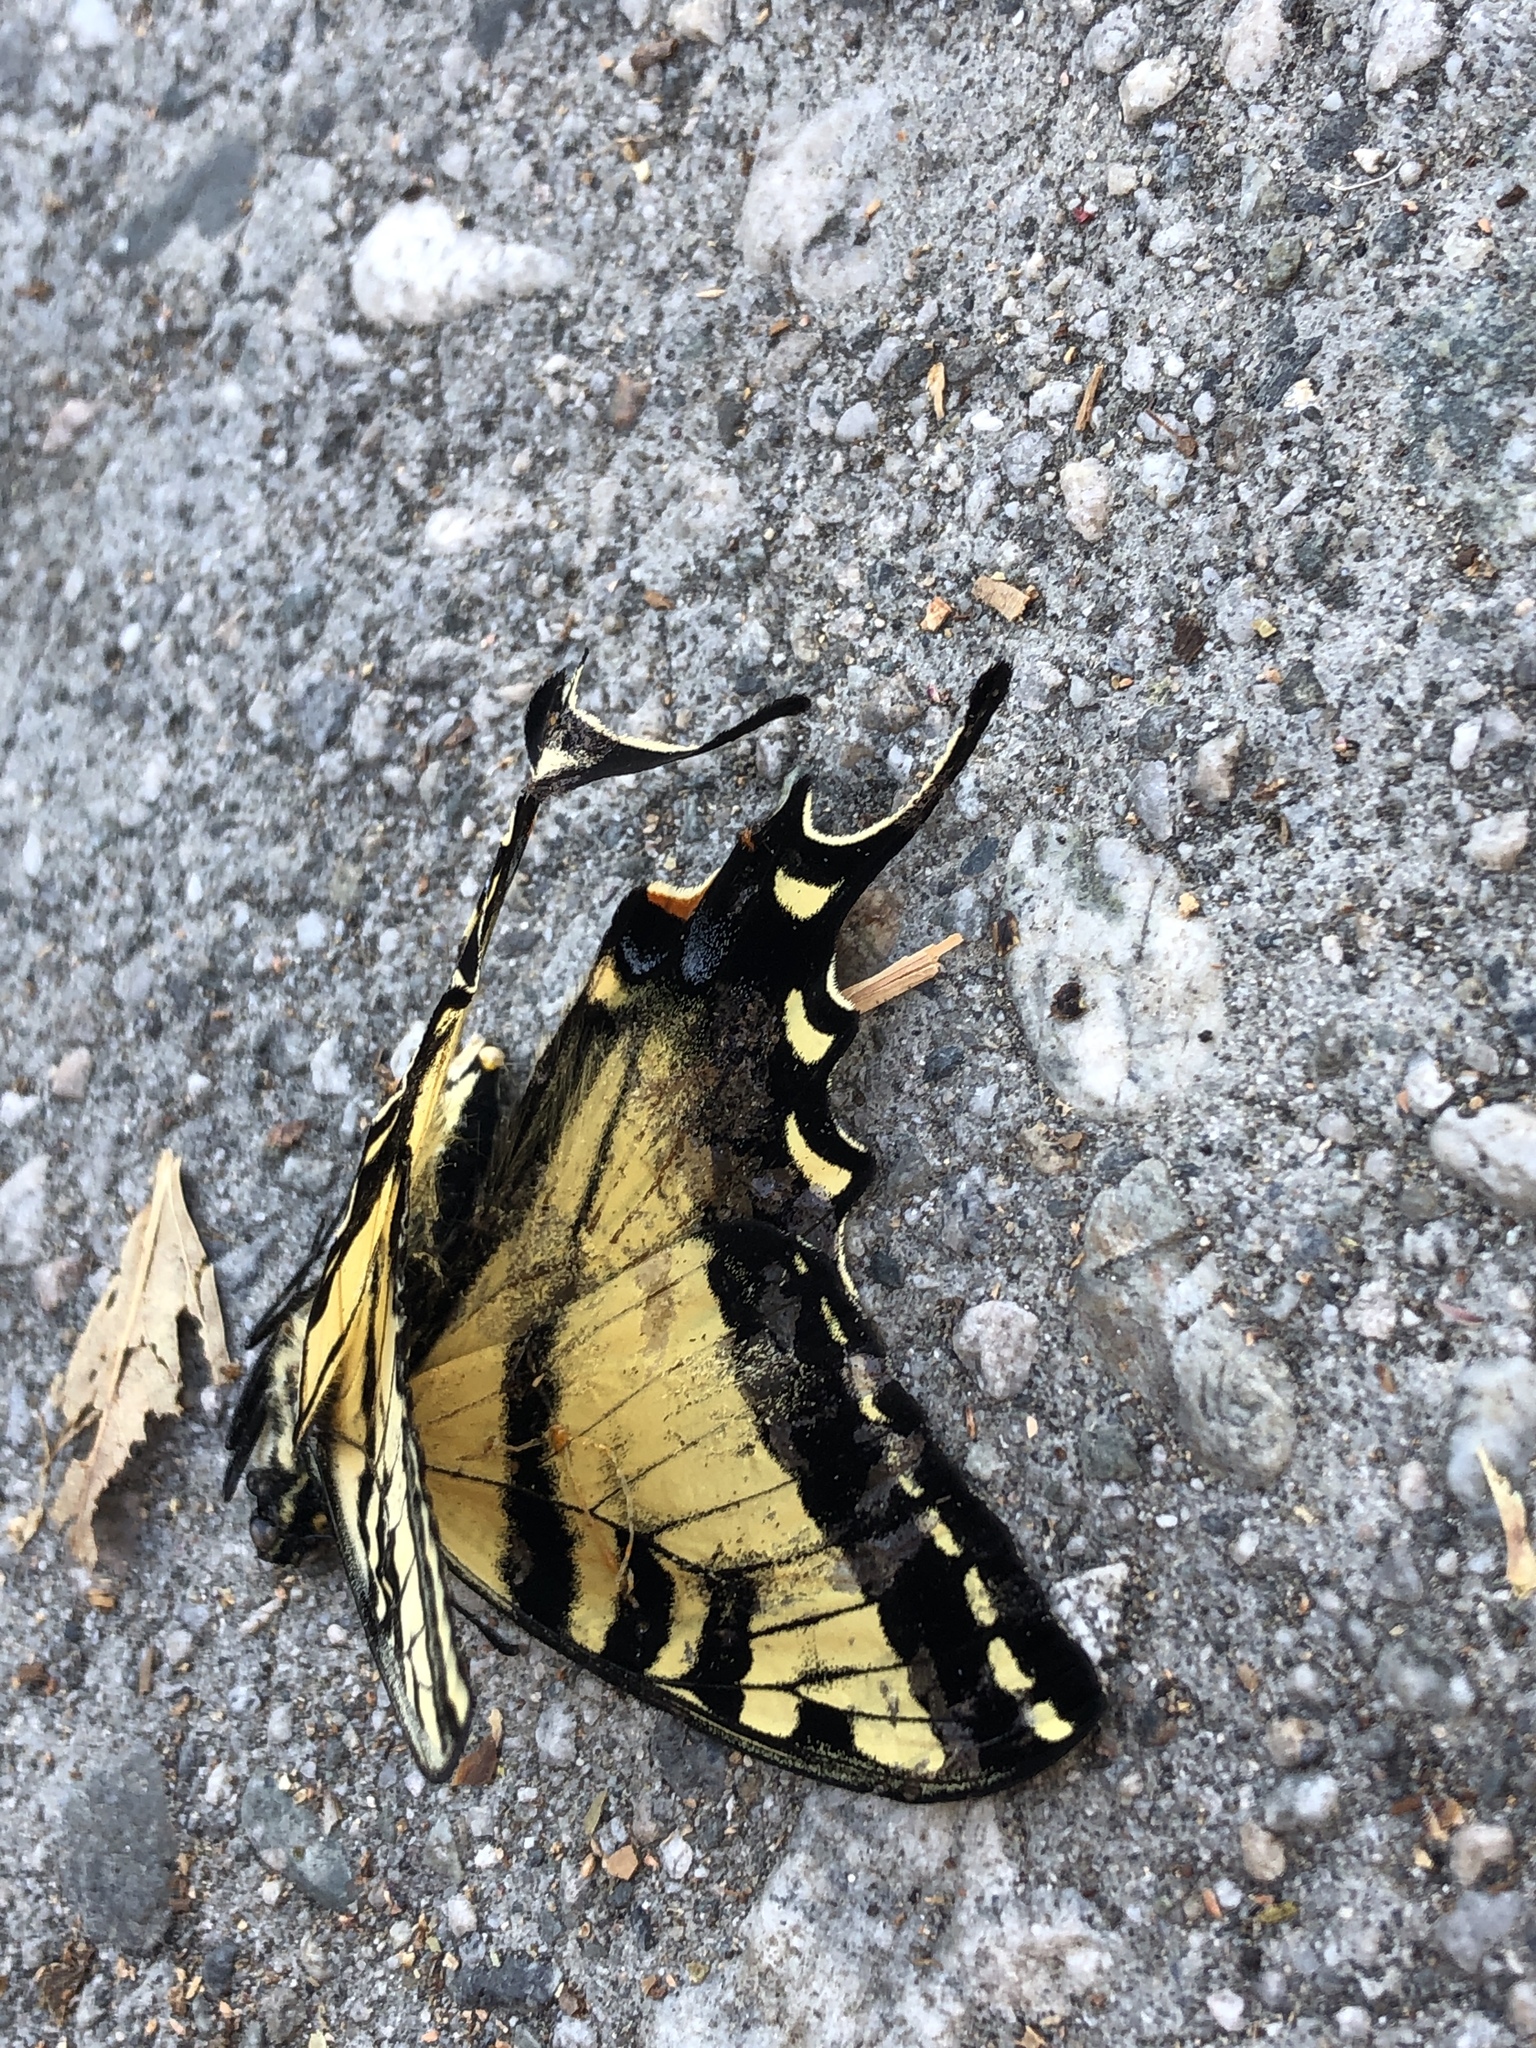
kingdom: Animalia
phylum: Arthropoda
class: Insecta
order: Lepidoptera
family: Papilionidae
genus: Papilio
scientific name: Papilio rutulus
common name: Western tiger swallowtail
